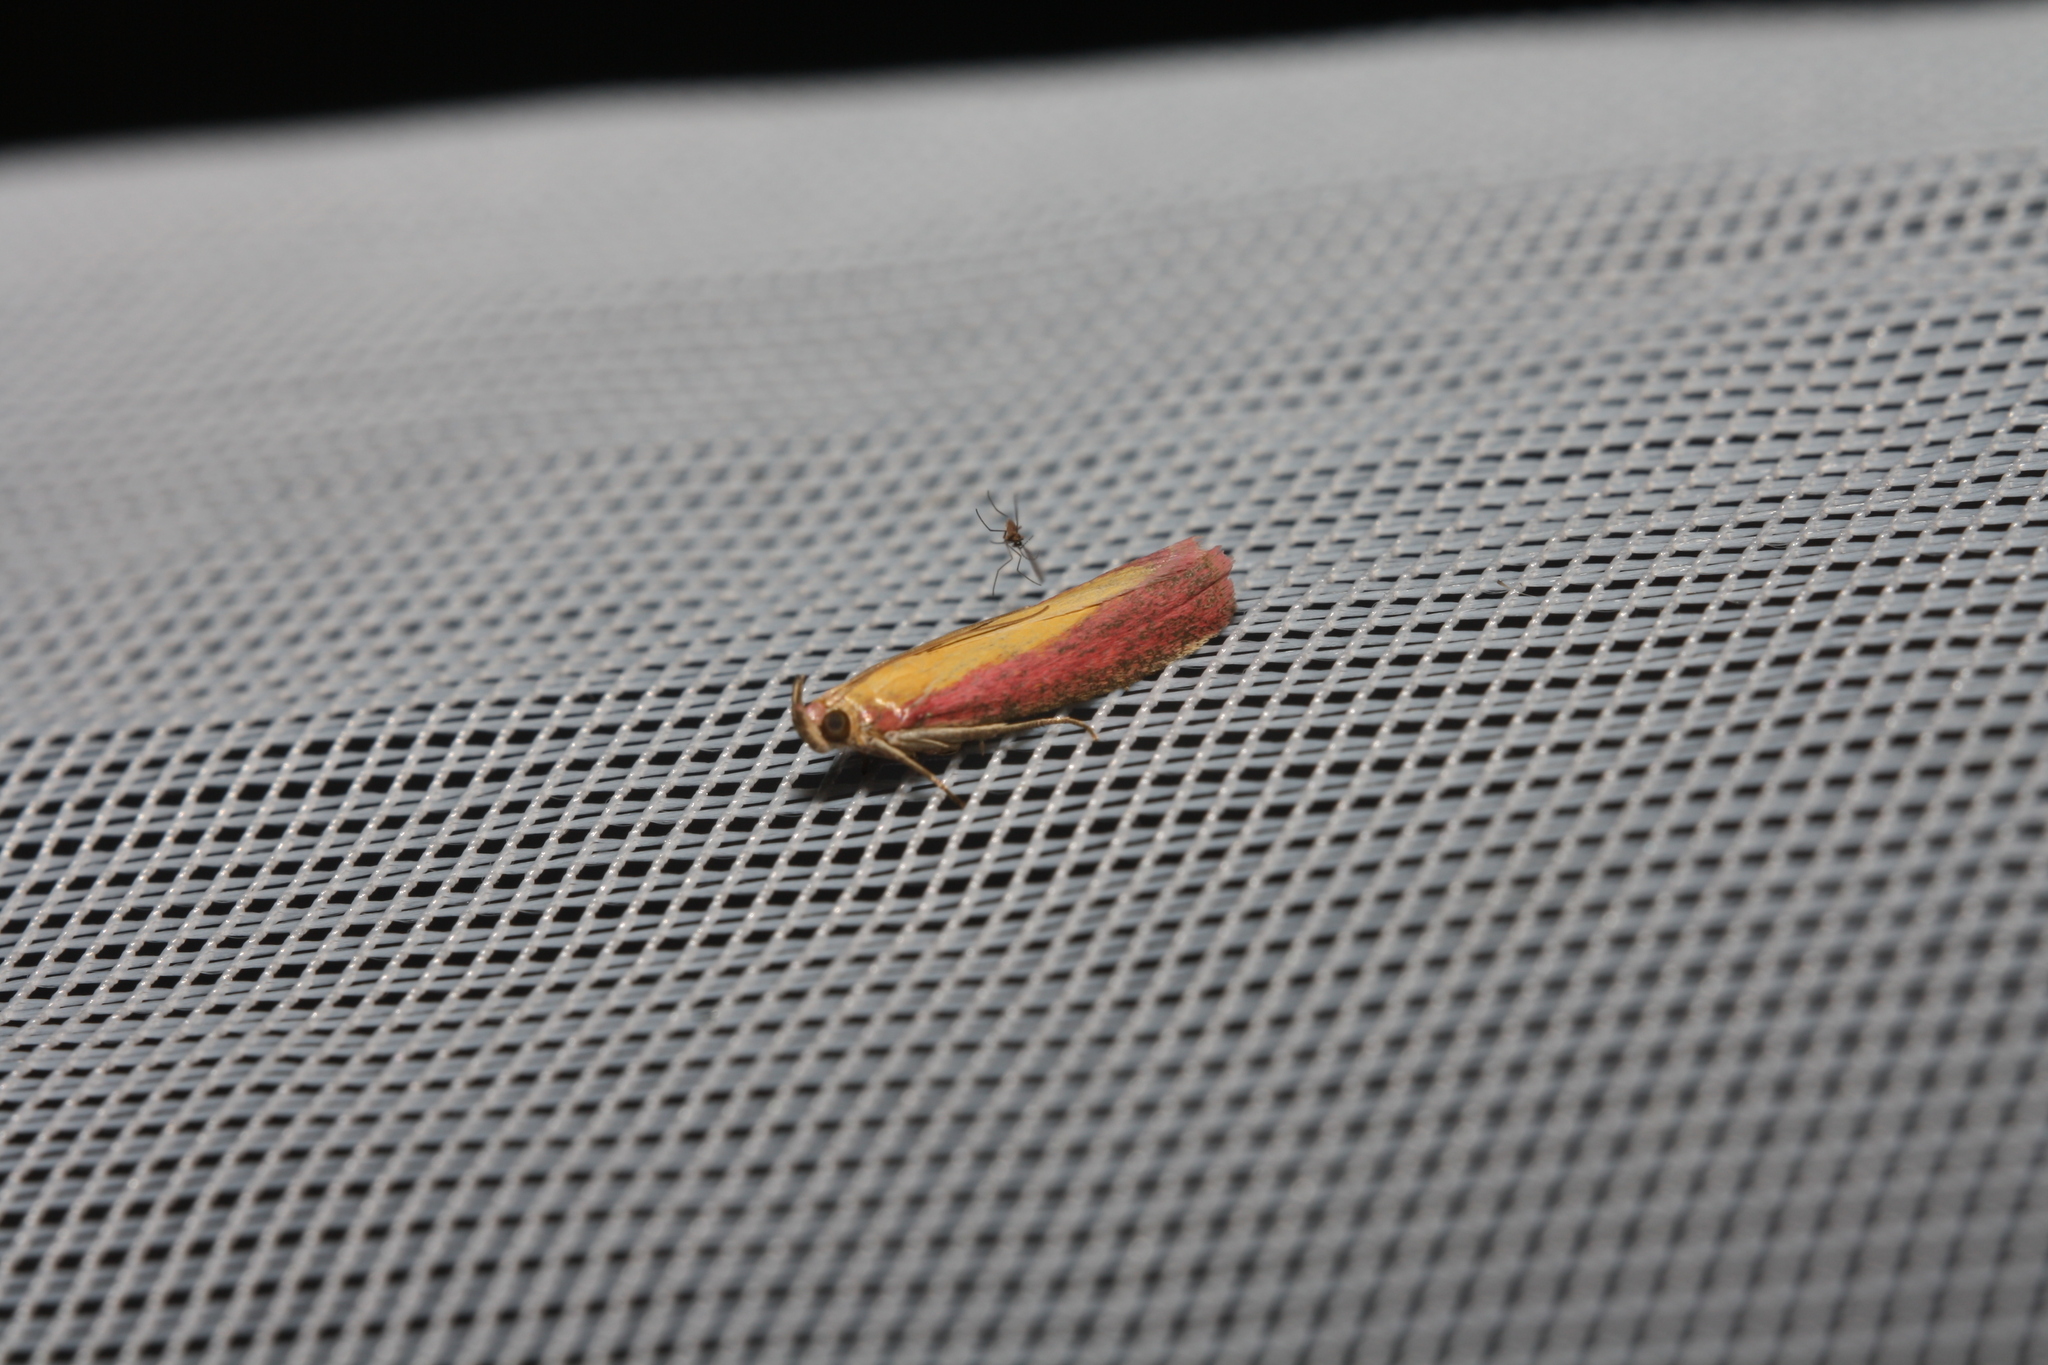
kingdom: Animalia
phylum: Arthropoda
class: Insecta
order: Lepidoptera
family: Pyralidae
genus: Oncocera
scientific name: Oncocera semirubella
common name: Rosy-striped knot-horn
